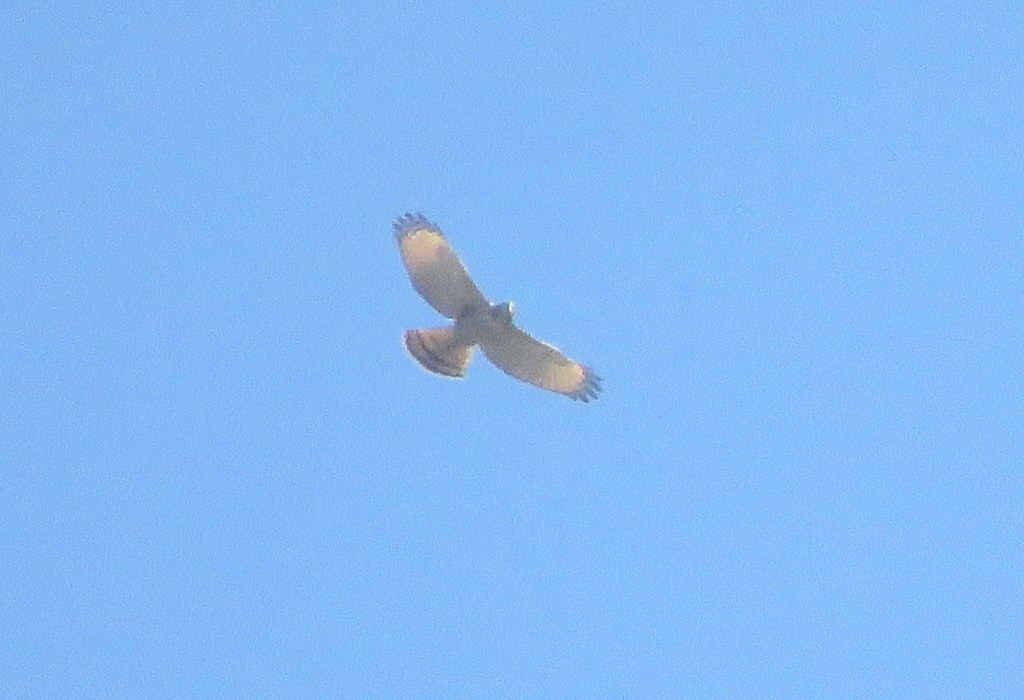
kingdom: Animalia
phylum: Chordata
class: Aves
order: Accipitriformes
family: Accipitridae
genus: Rupornis
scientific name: Rupornis magnirostris
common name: Roadside hawk
